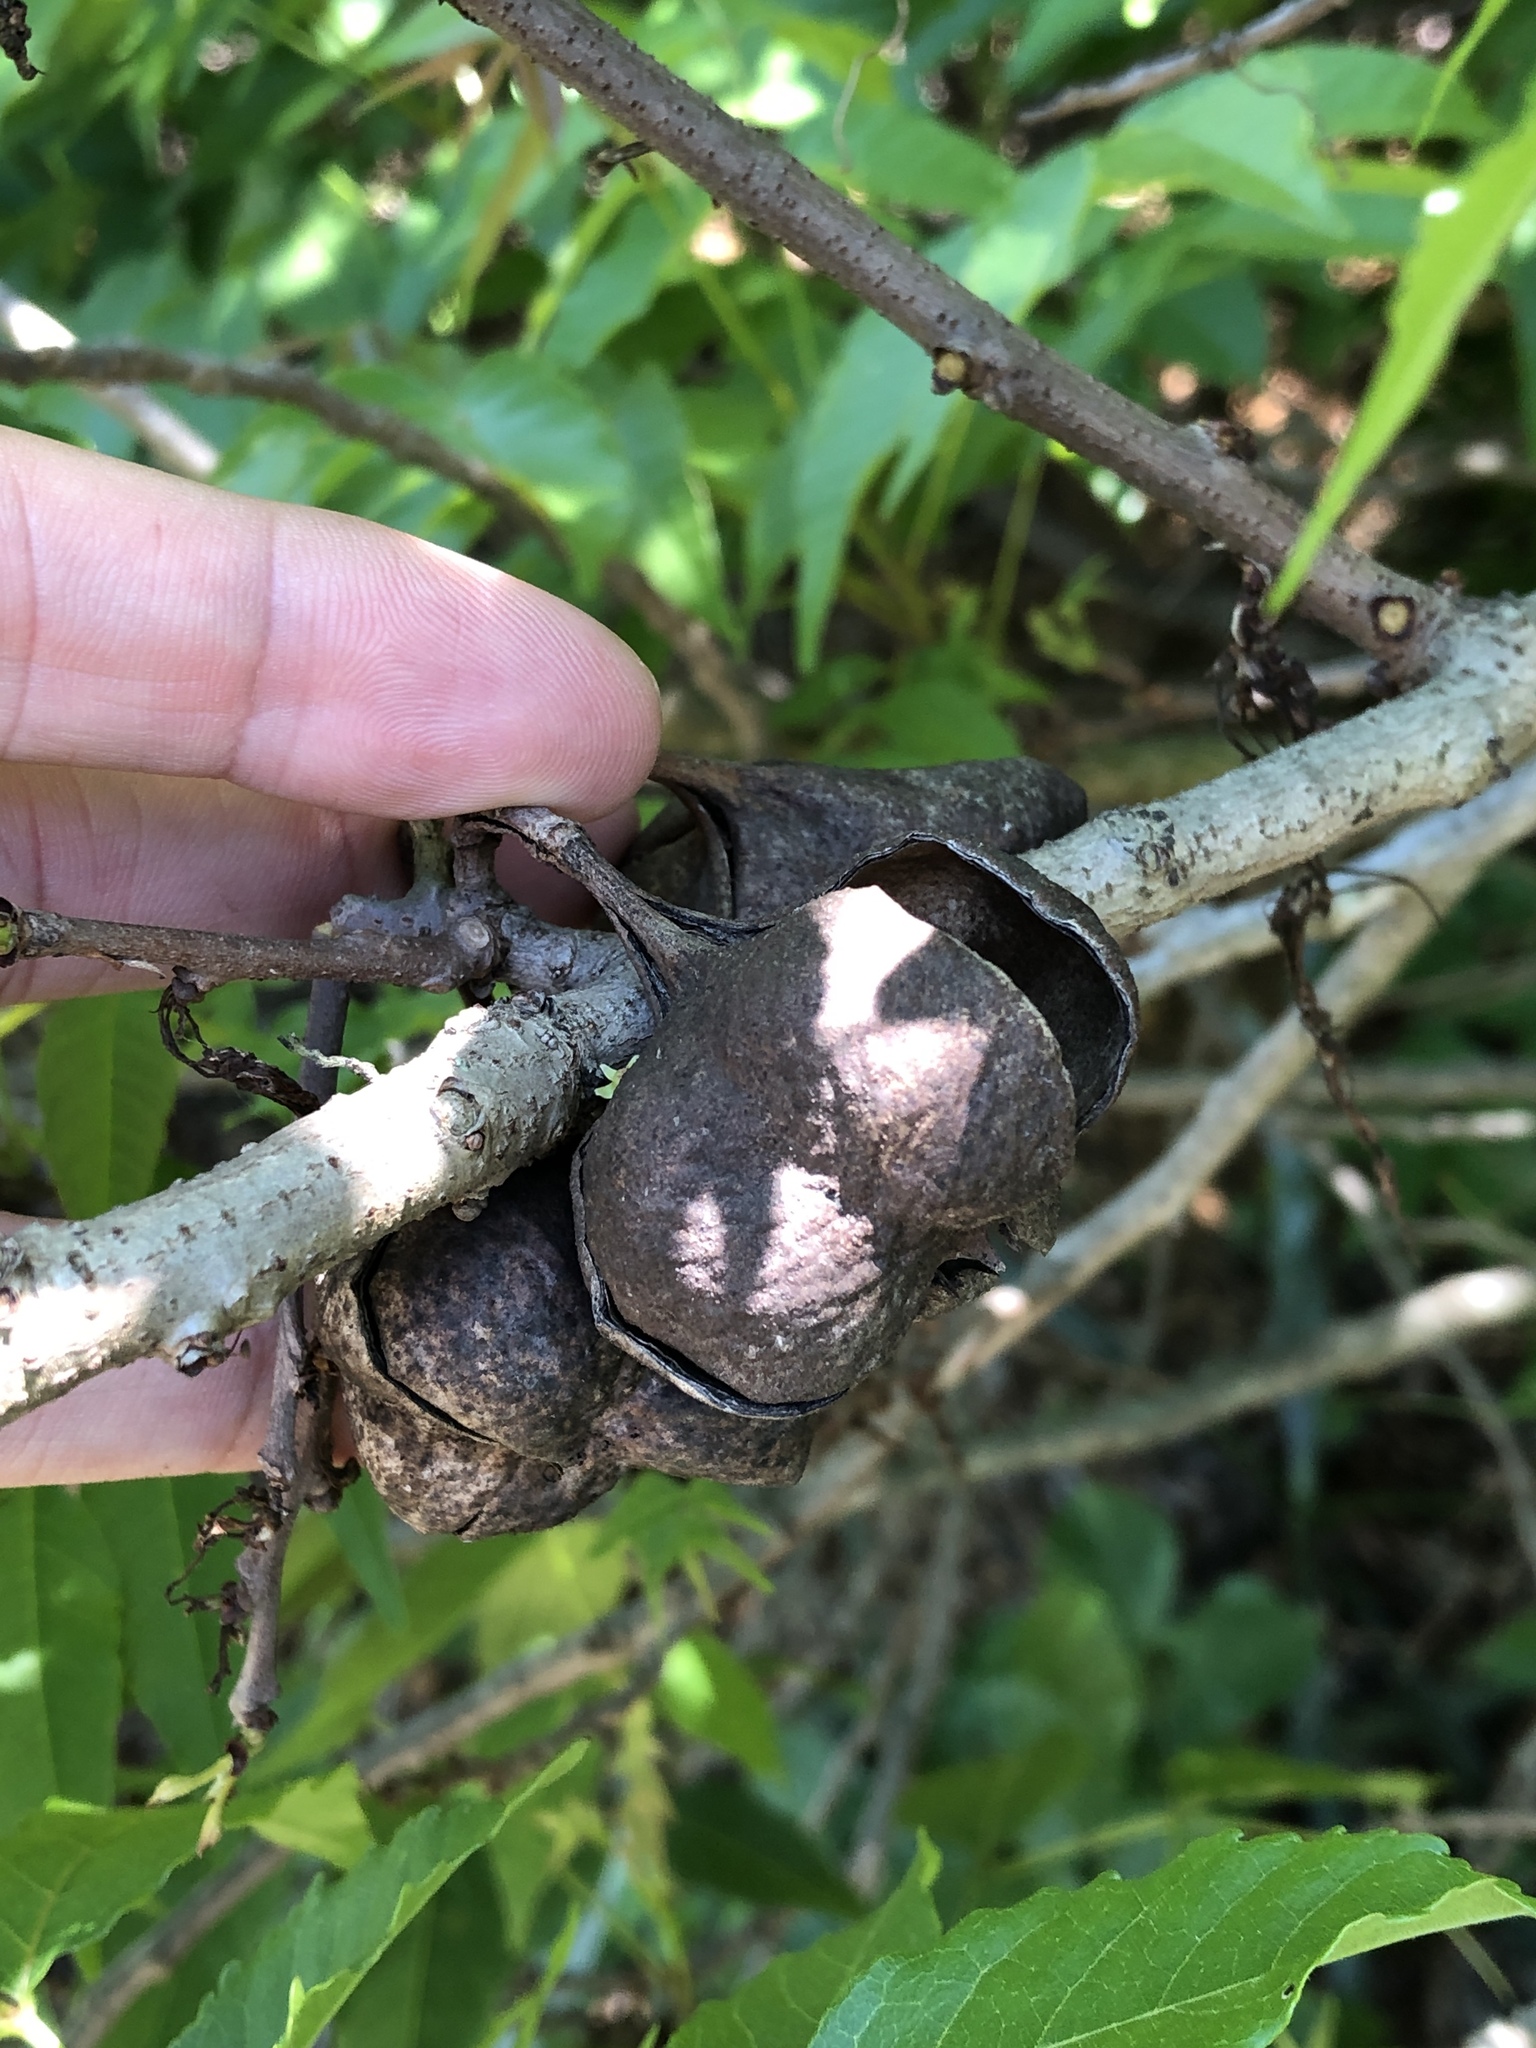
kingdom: Plantae
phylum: Tracheophyta
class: Magnoliopsida
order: Sapindales
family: Sapindaceae
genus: Ungnadia
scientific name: Ungnadia speciosa
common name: Texas-buckeye
